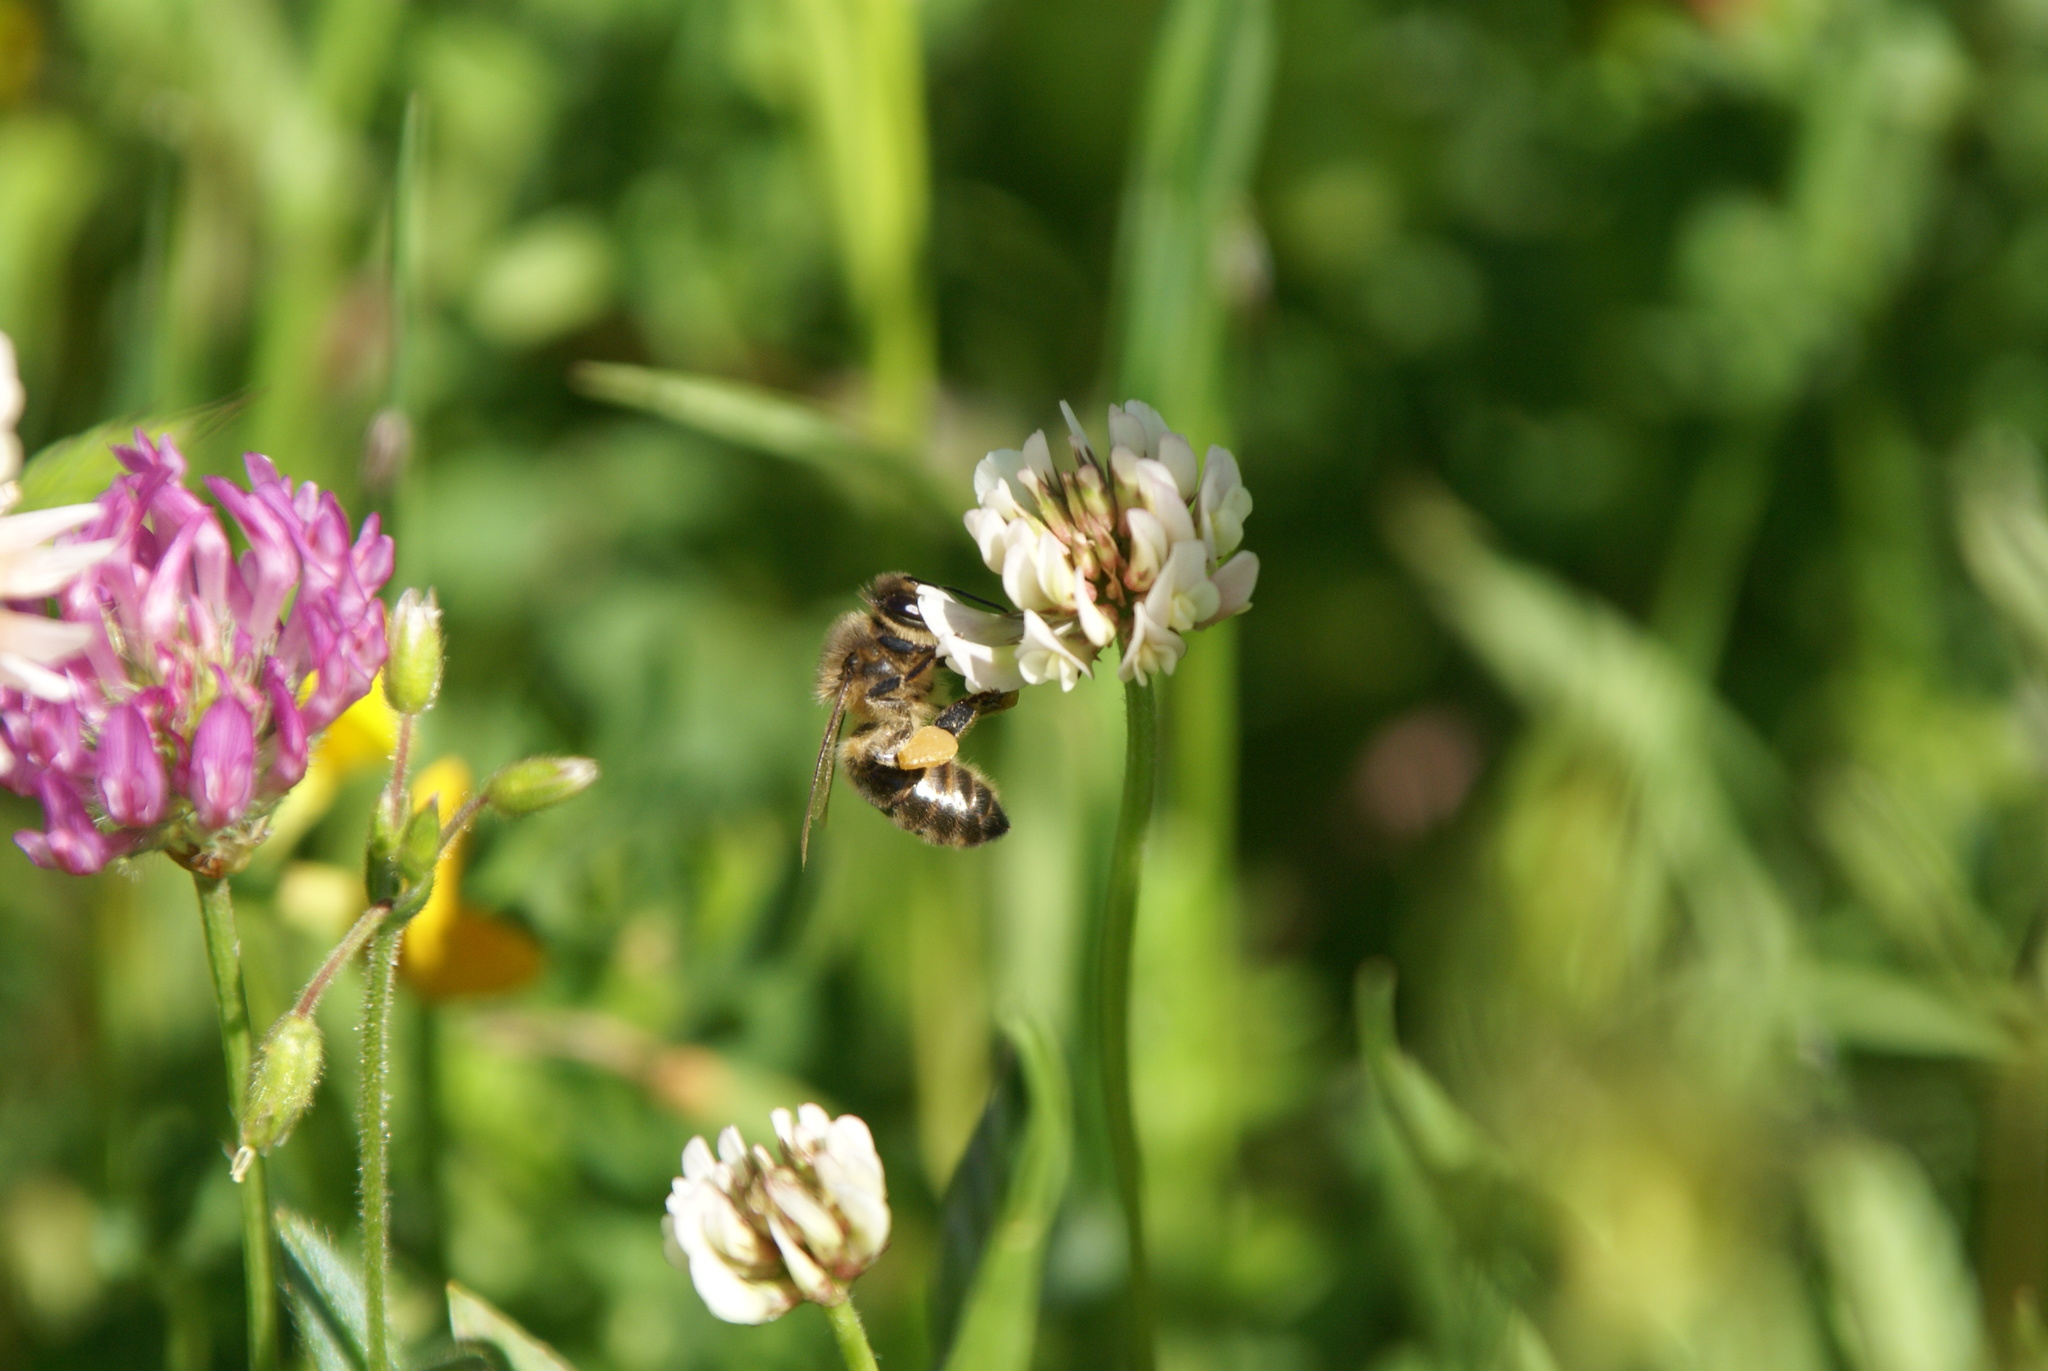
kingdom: Animalia
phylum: Arthropoda
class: Insecta
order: Hymenoptera
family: Apidae
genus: Apis
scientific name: Apis mellifera
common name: Honey bee
